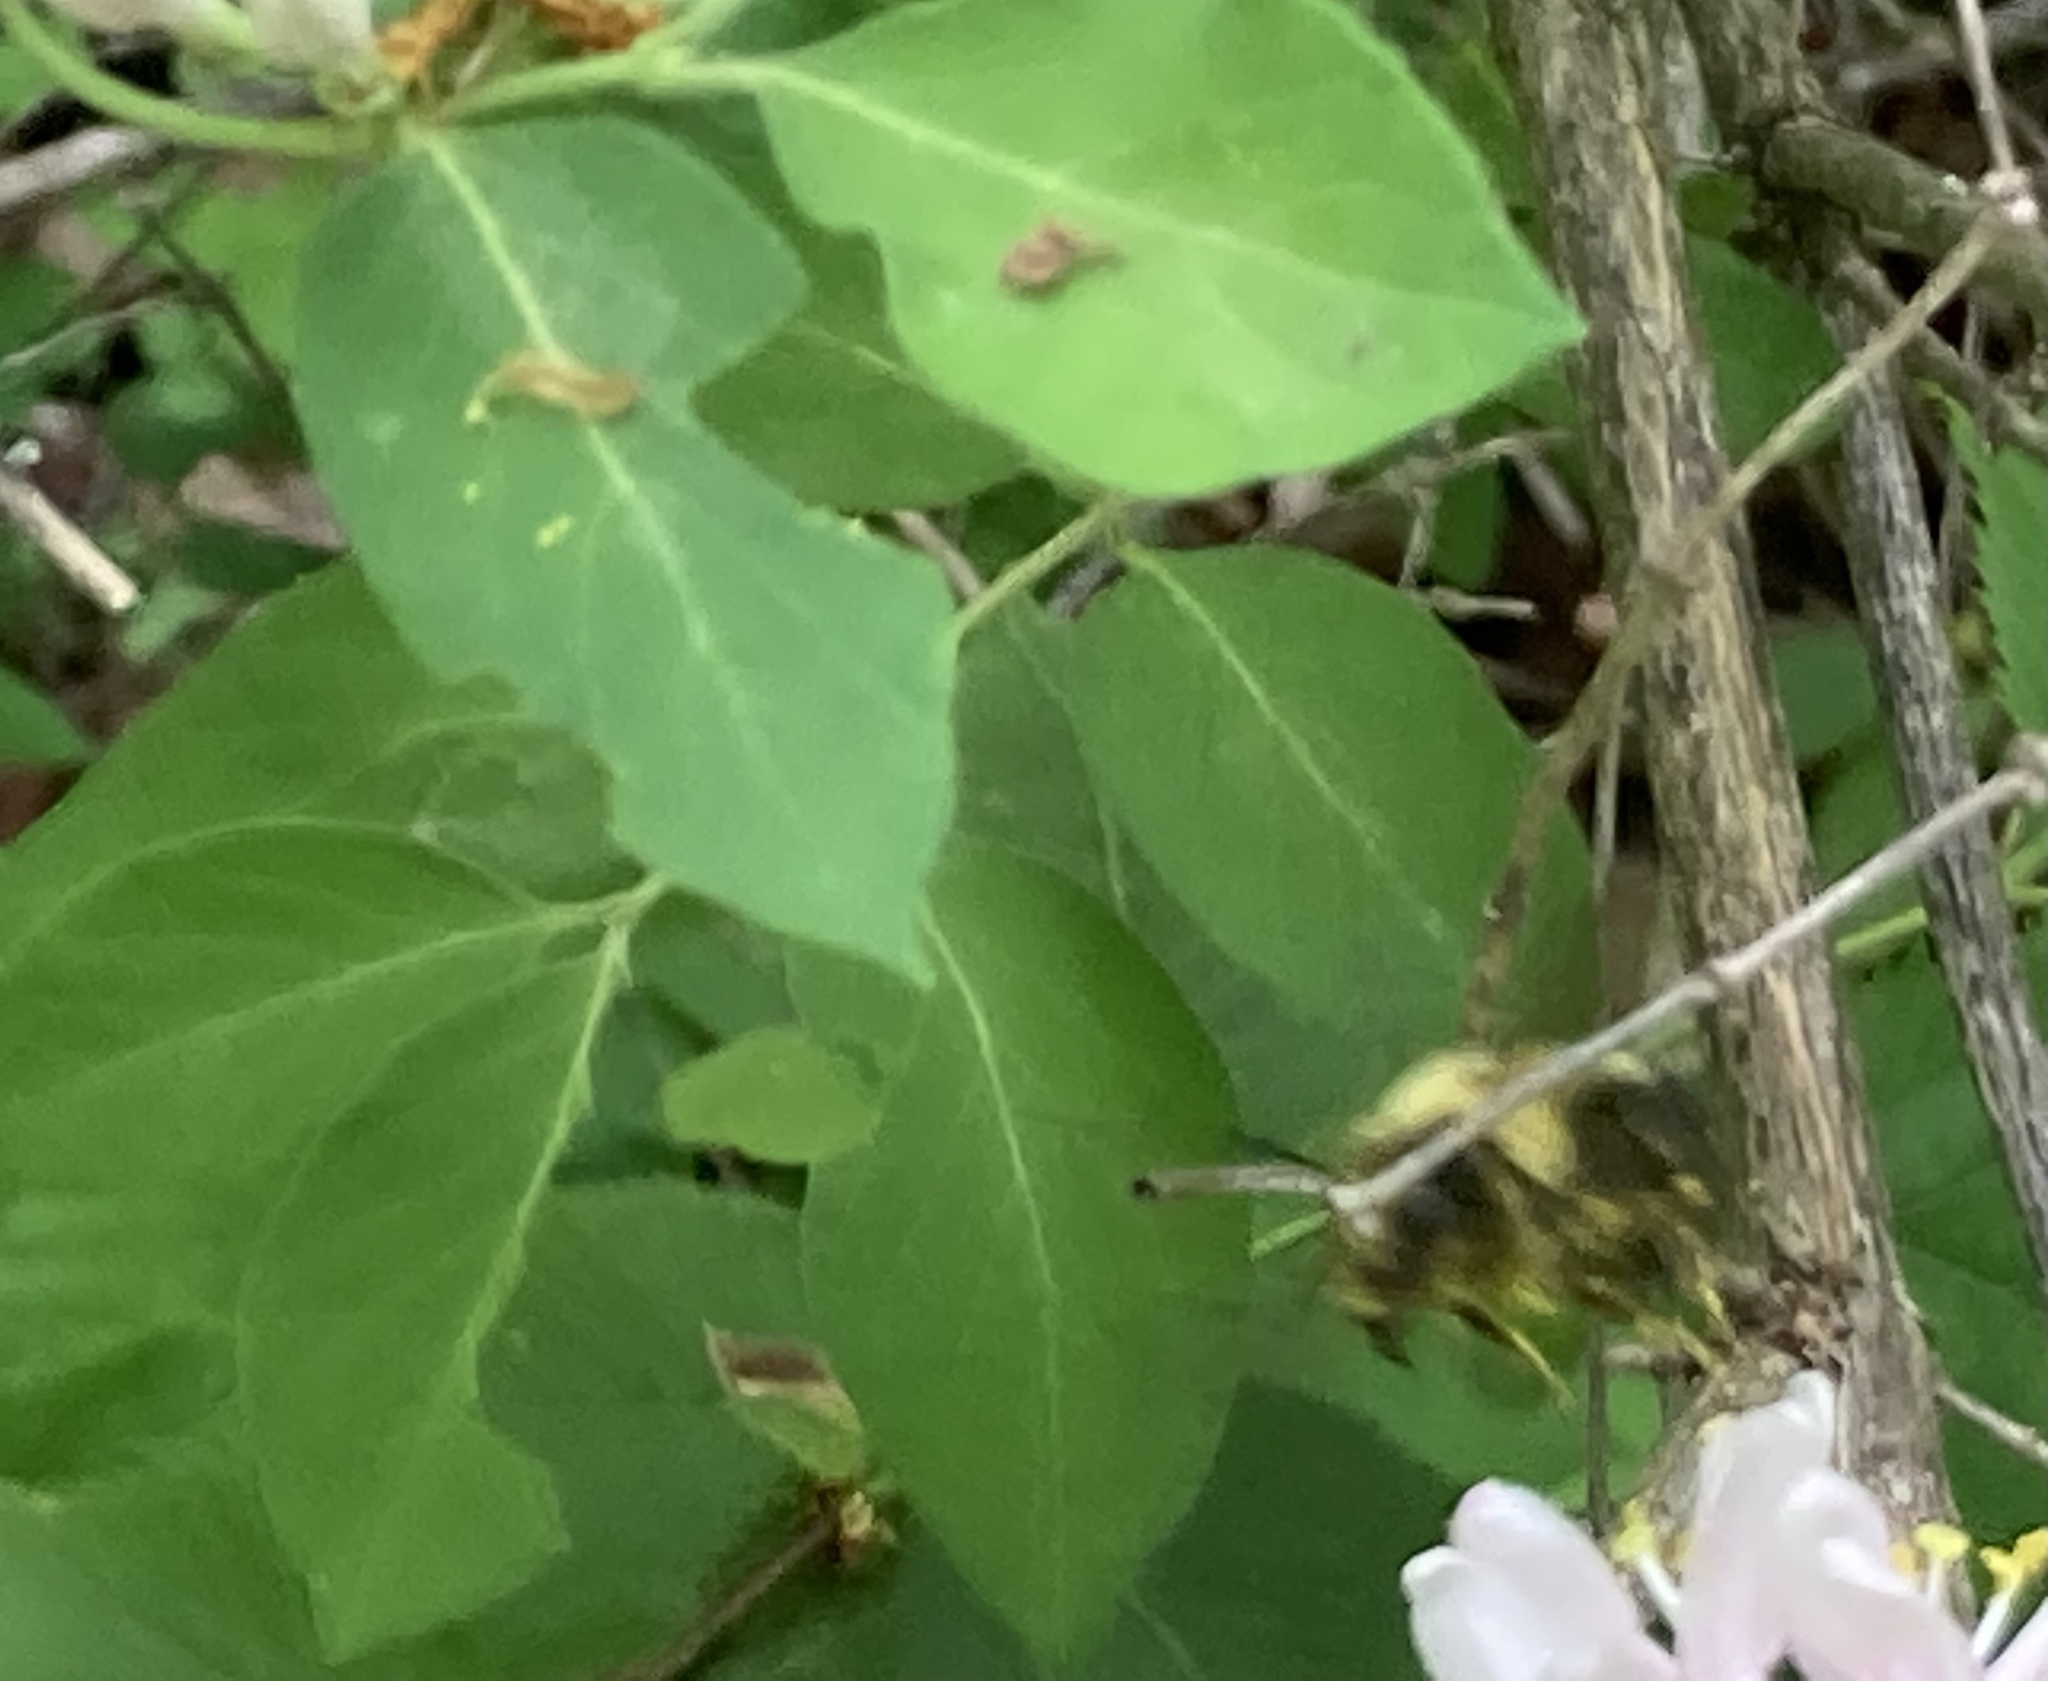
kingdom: Animalia
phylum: Arthropoda
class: Insecta
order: Hymenoptera
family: Apidae
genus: Bombus
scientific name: Bombus vagans
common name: Half-black bumble bee
